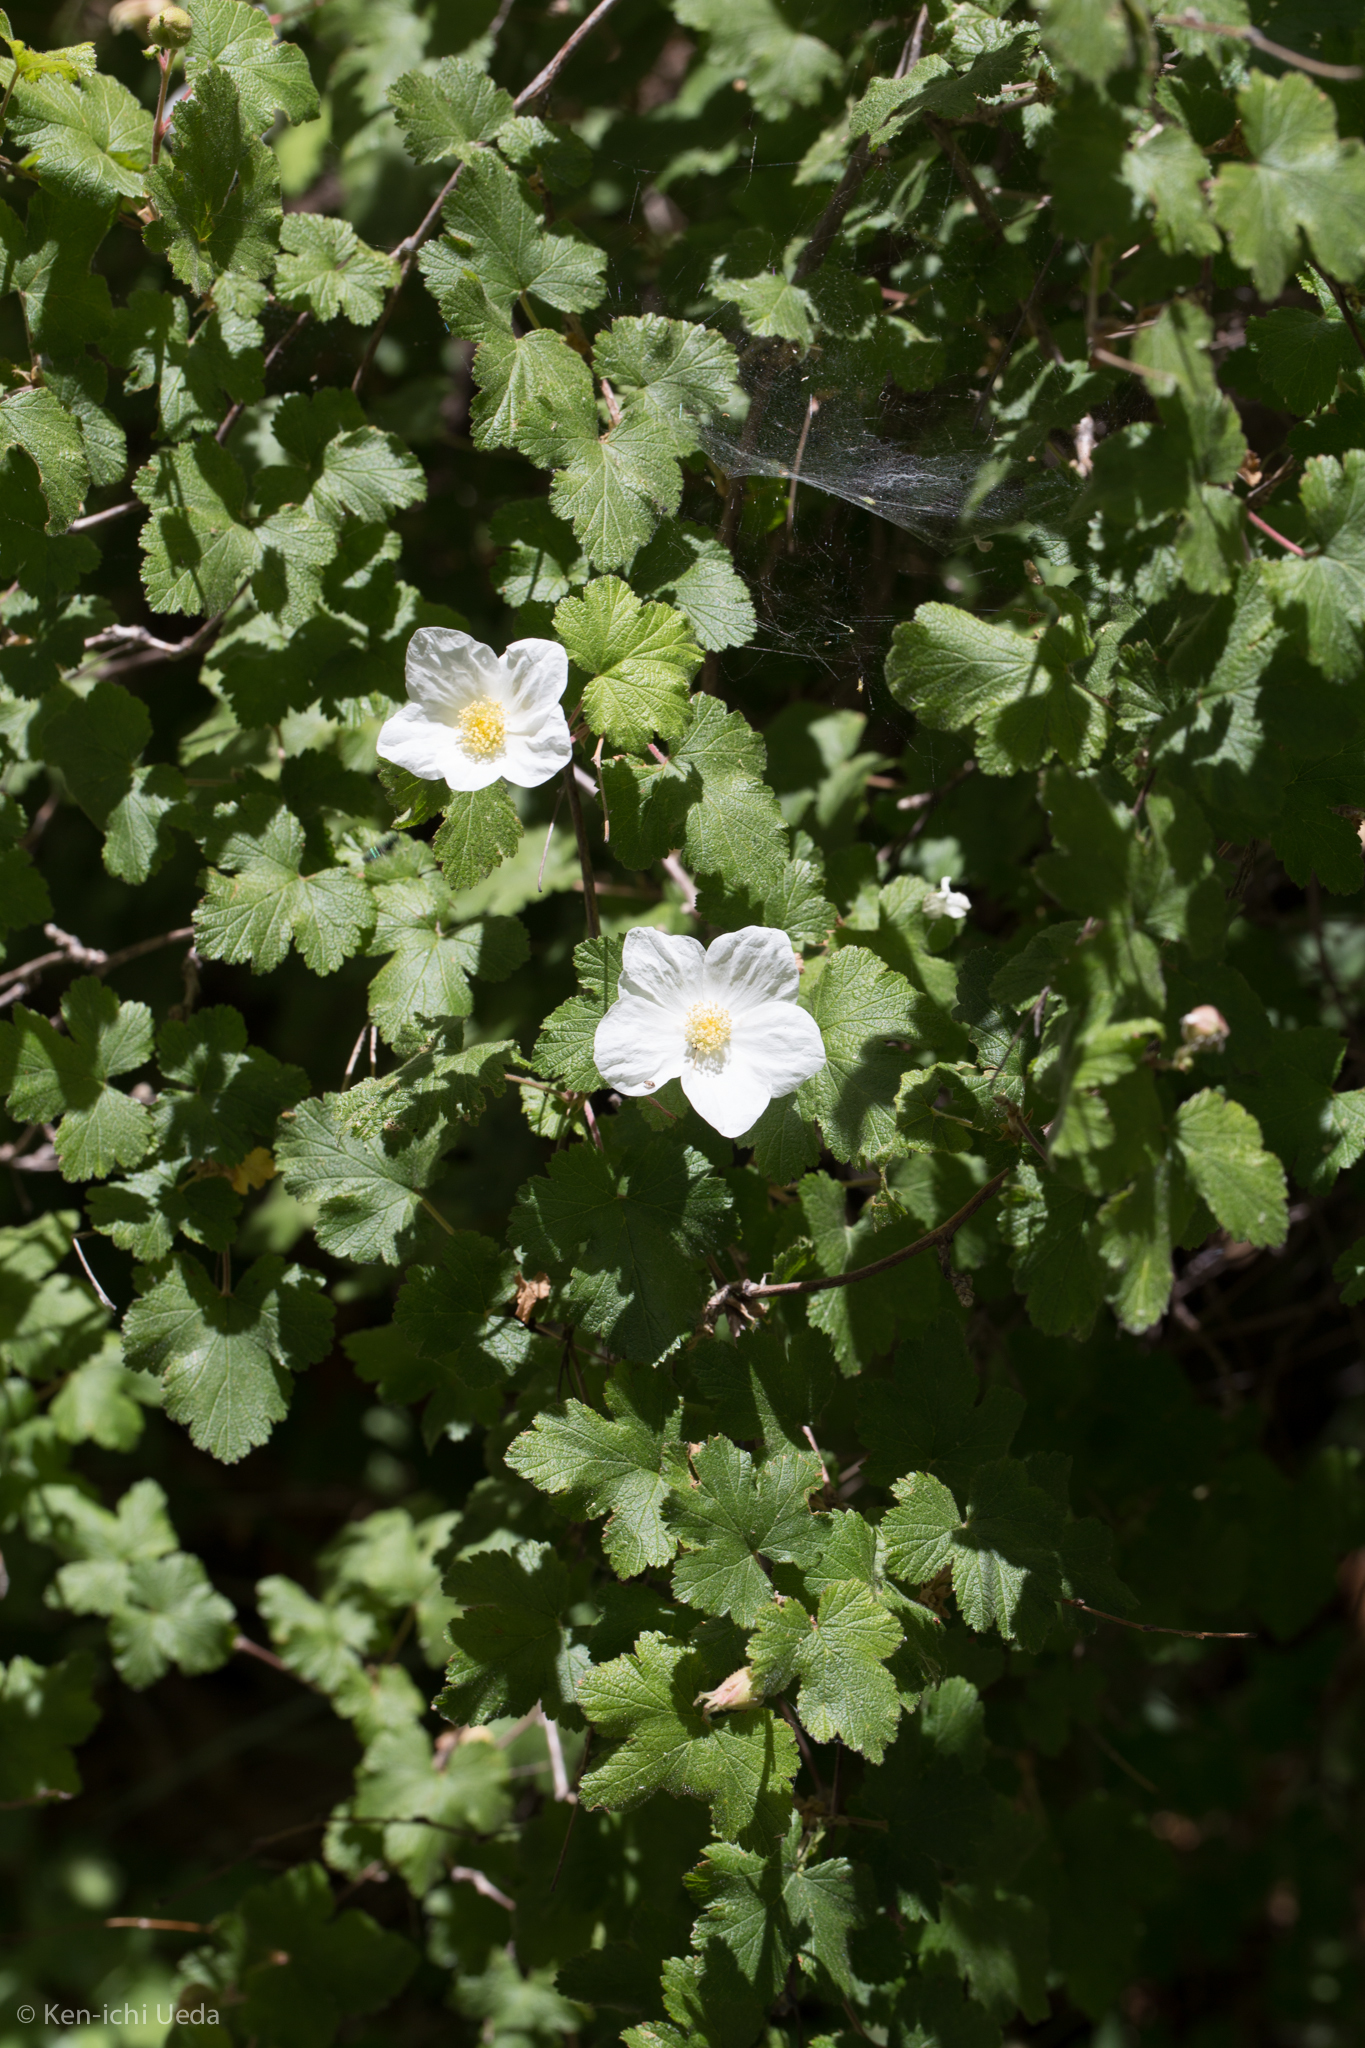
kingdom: Plantae
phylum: Tracheophyta
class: Magnoliopsida
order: Rosales
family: Rosaceae
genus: Rubus
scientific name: Rubus neomexicanus
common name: New mexico raspberry
